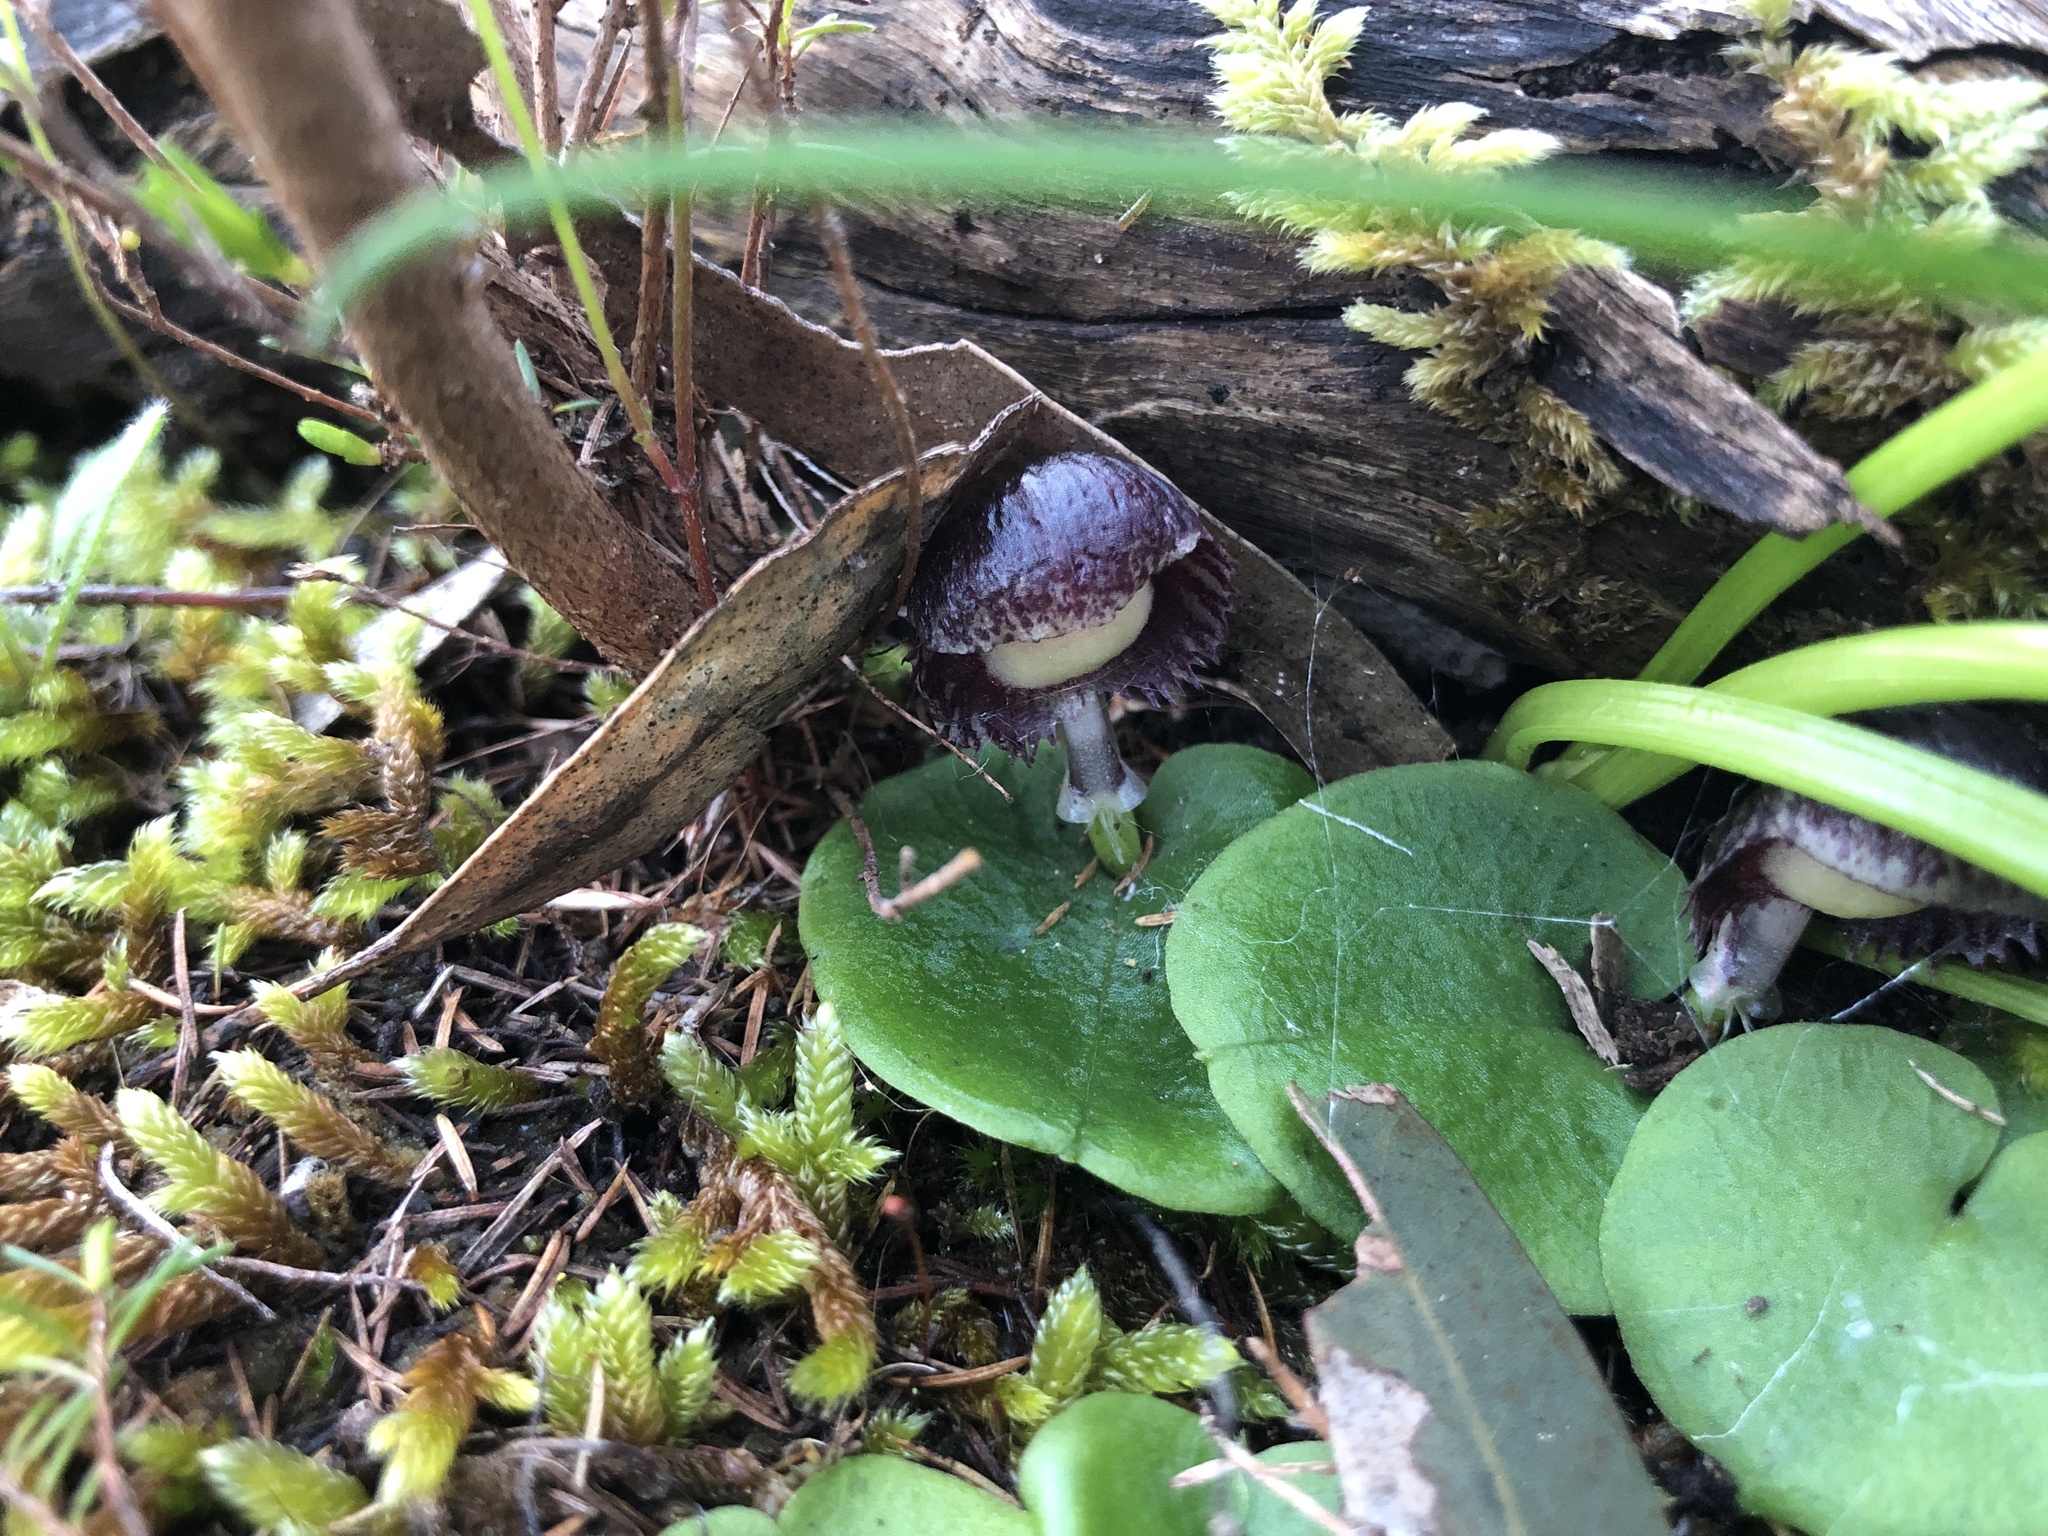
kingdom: Plantae
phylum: Tracheophyta
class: Liliopsida
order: Asparagales
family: Orchidaceae
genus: Corybas
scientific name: Corybas diemenicus
